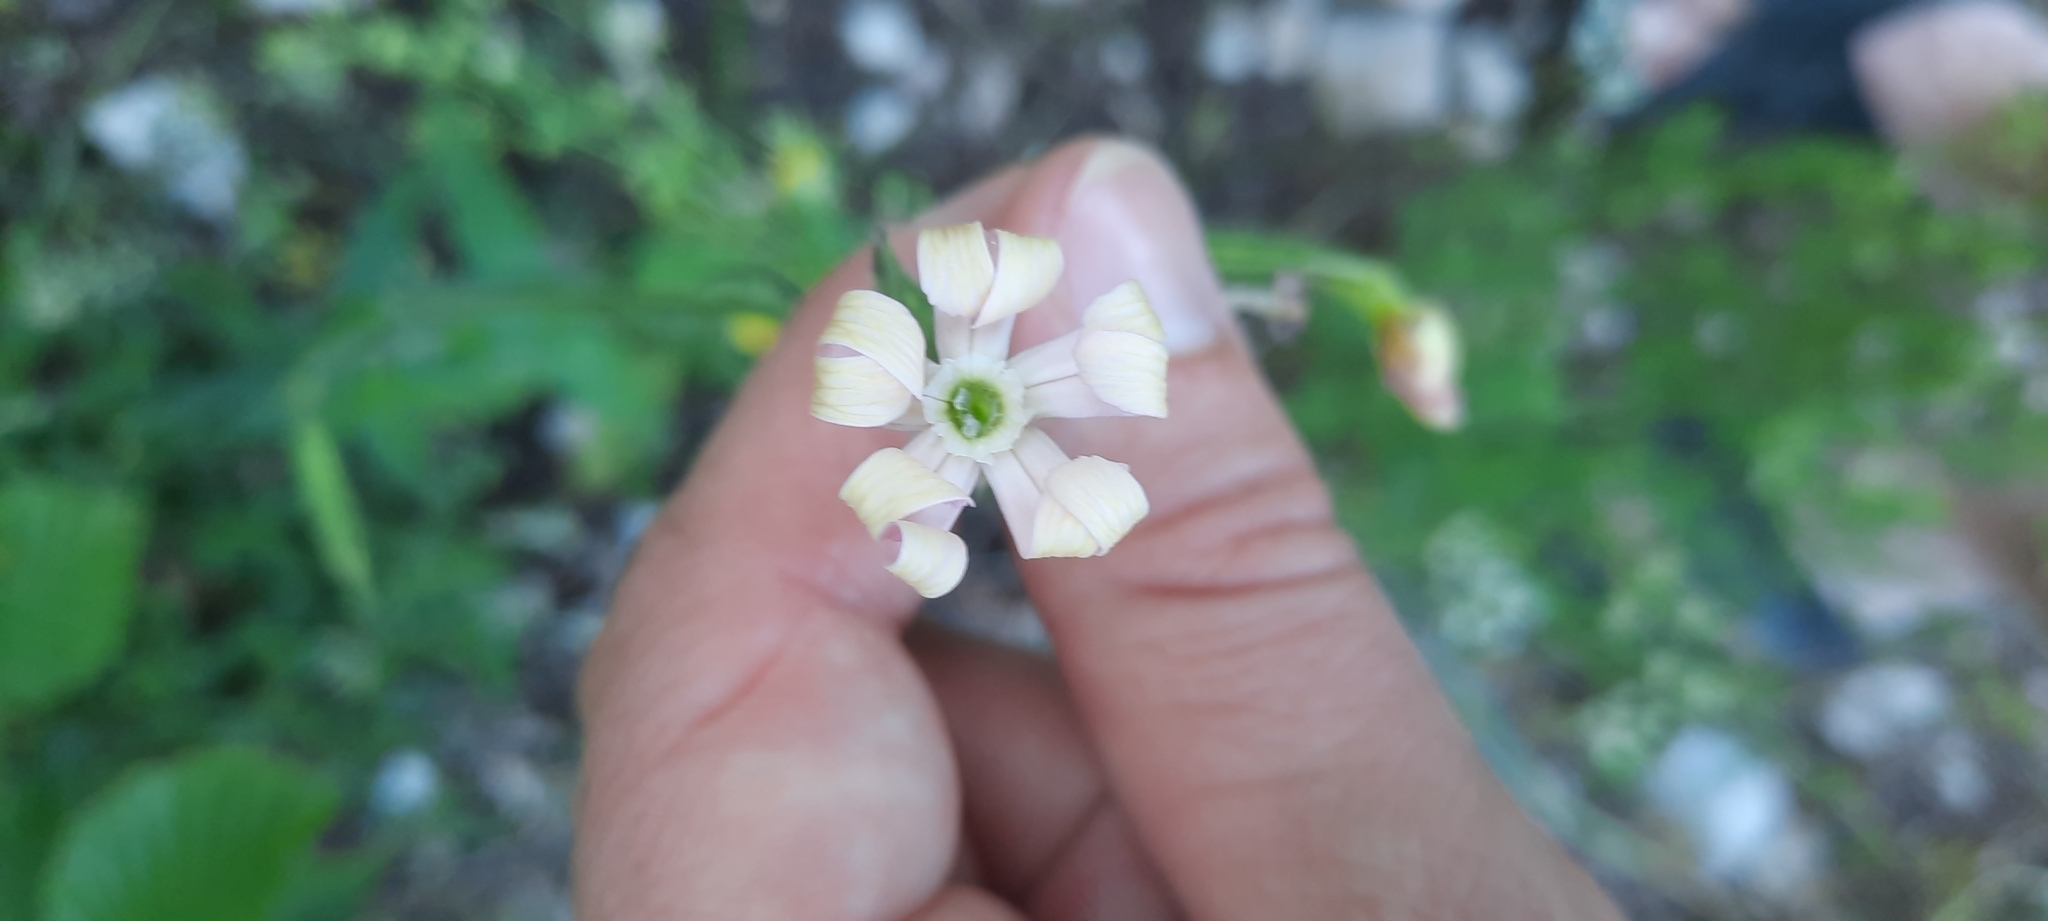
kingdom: Plantae
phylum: Tracheophyta
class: Magnoliopsida
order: Caryophyllales
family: Caryophyllaceae
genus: Silene
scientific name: Silene noctiflora
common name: Night-flowering catchfly
